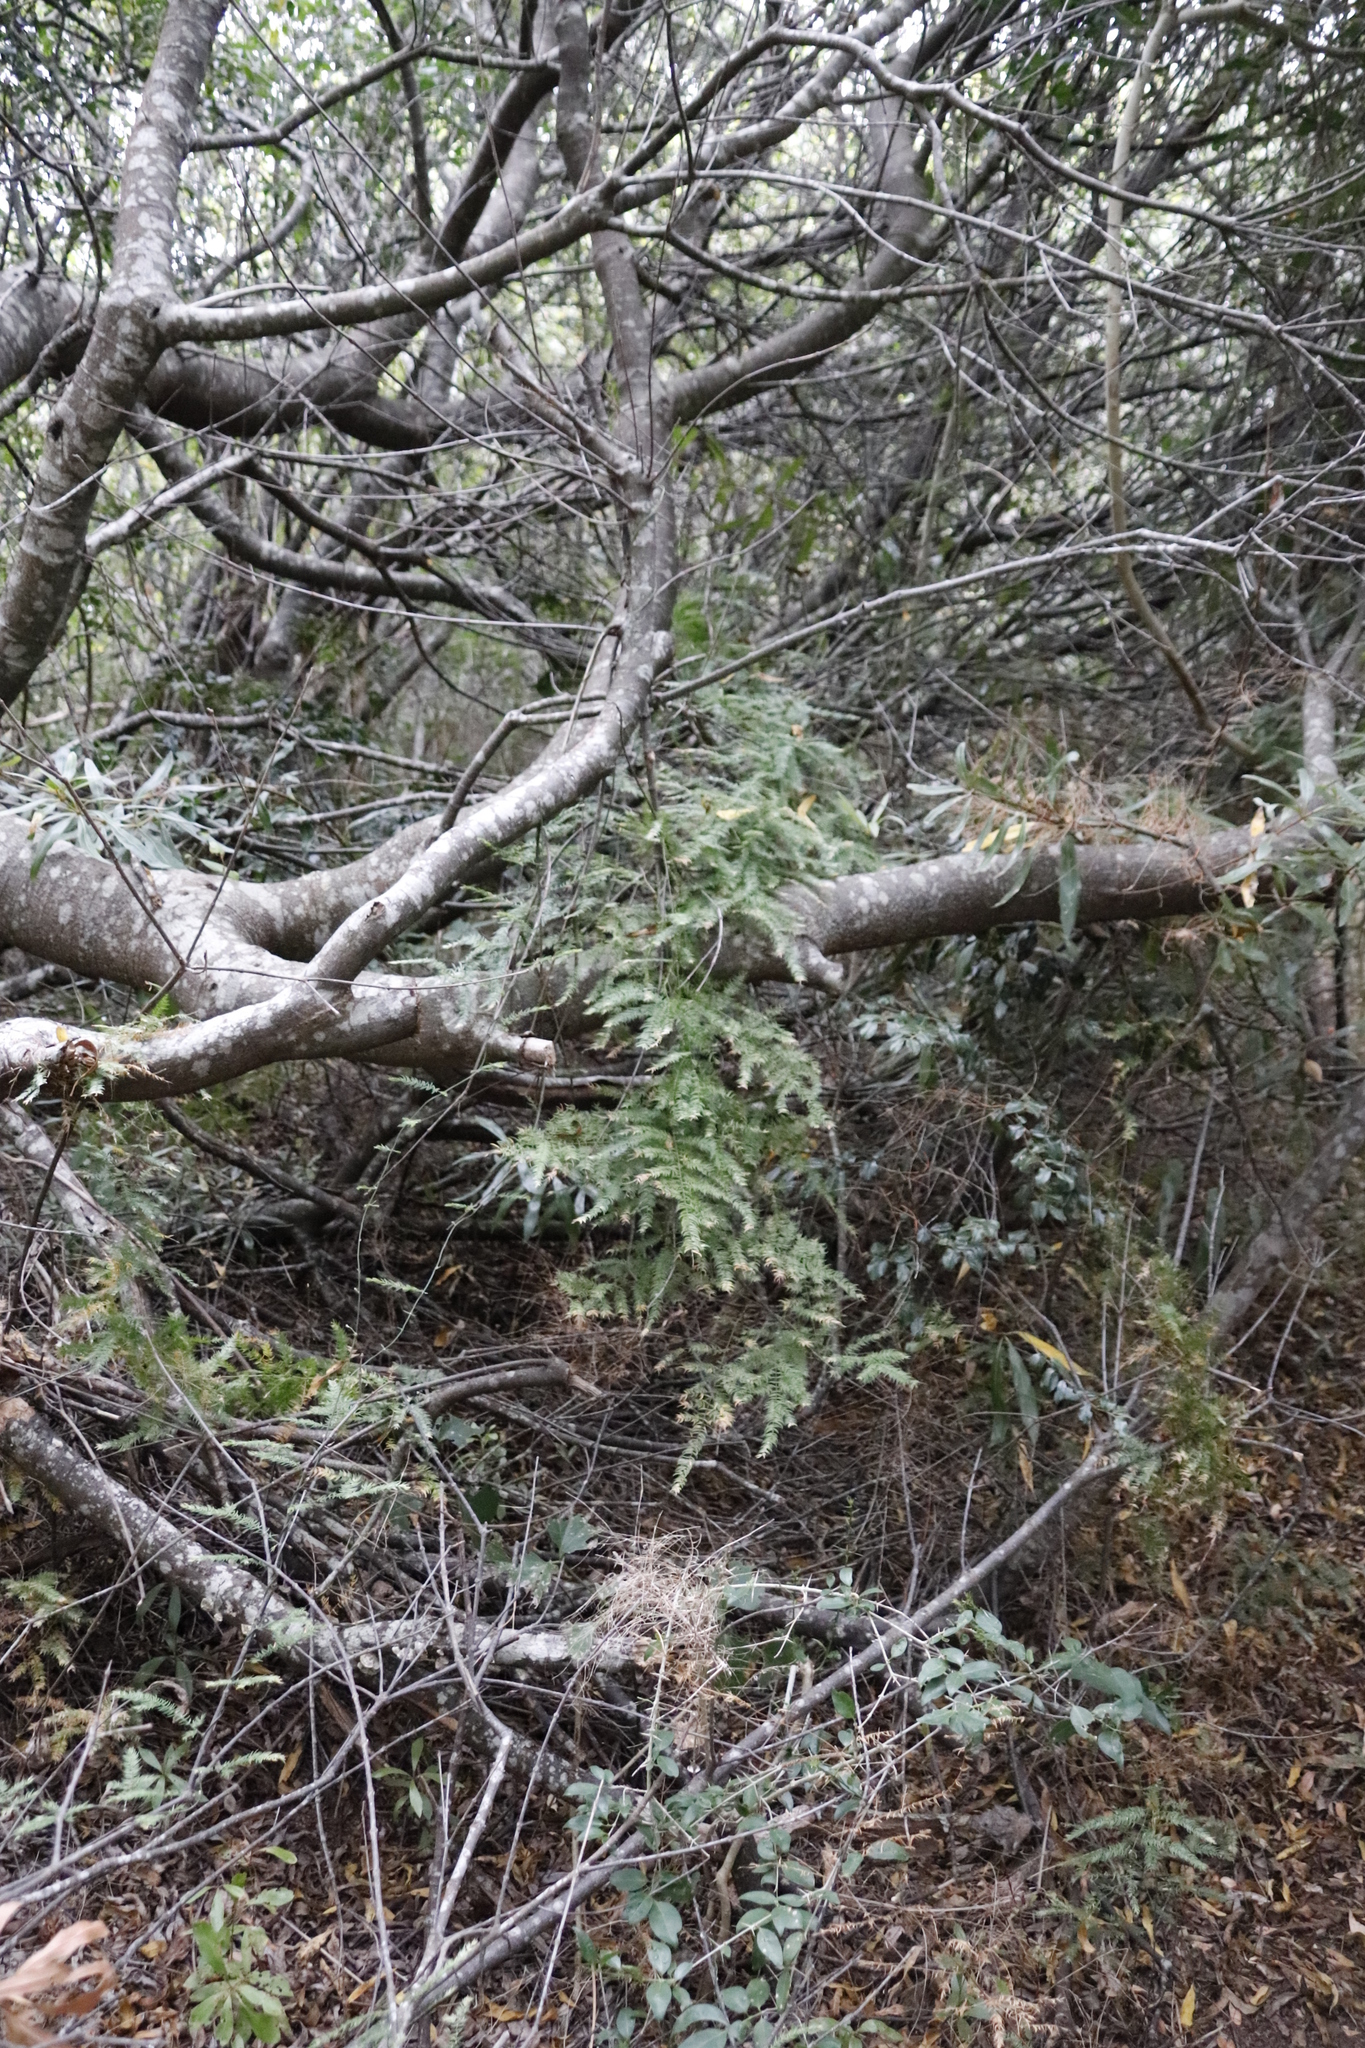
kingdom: Plantae
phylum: Tracheophyta
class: Liliopsida
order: Asparagales
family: Asparagaceae
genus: Asparagus
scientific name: Asparagus scandens
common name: Asparagus-fern
